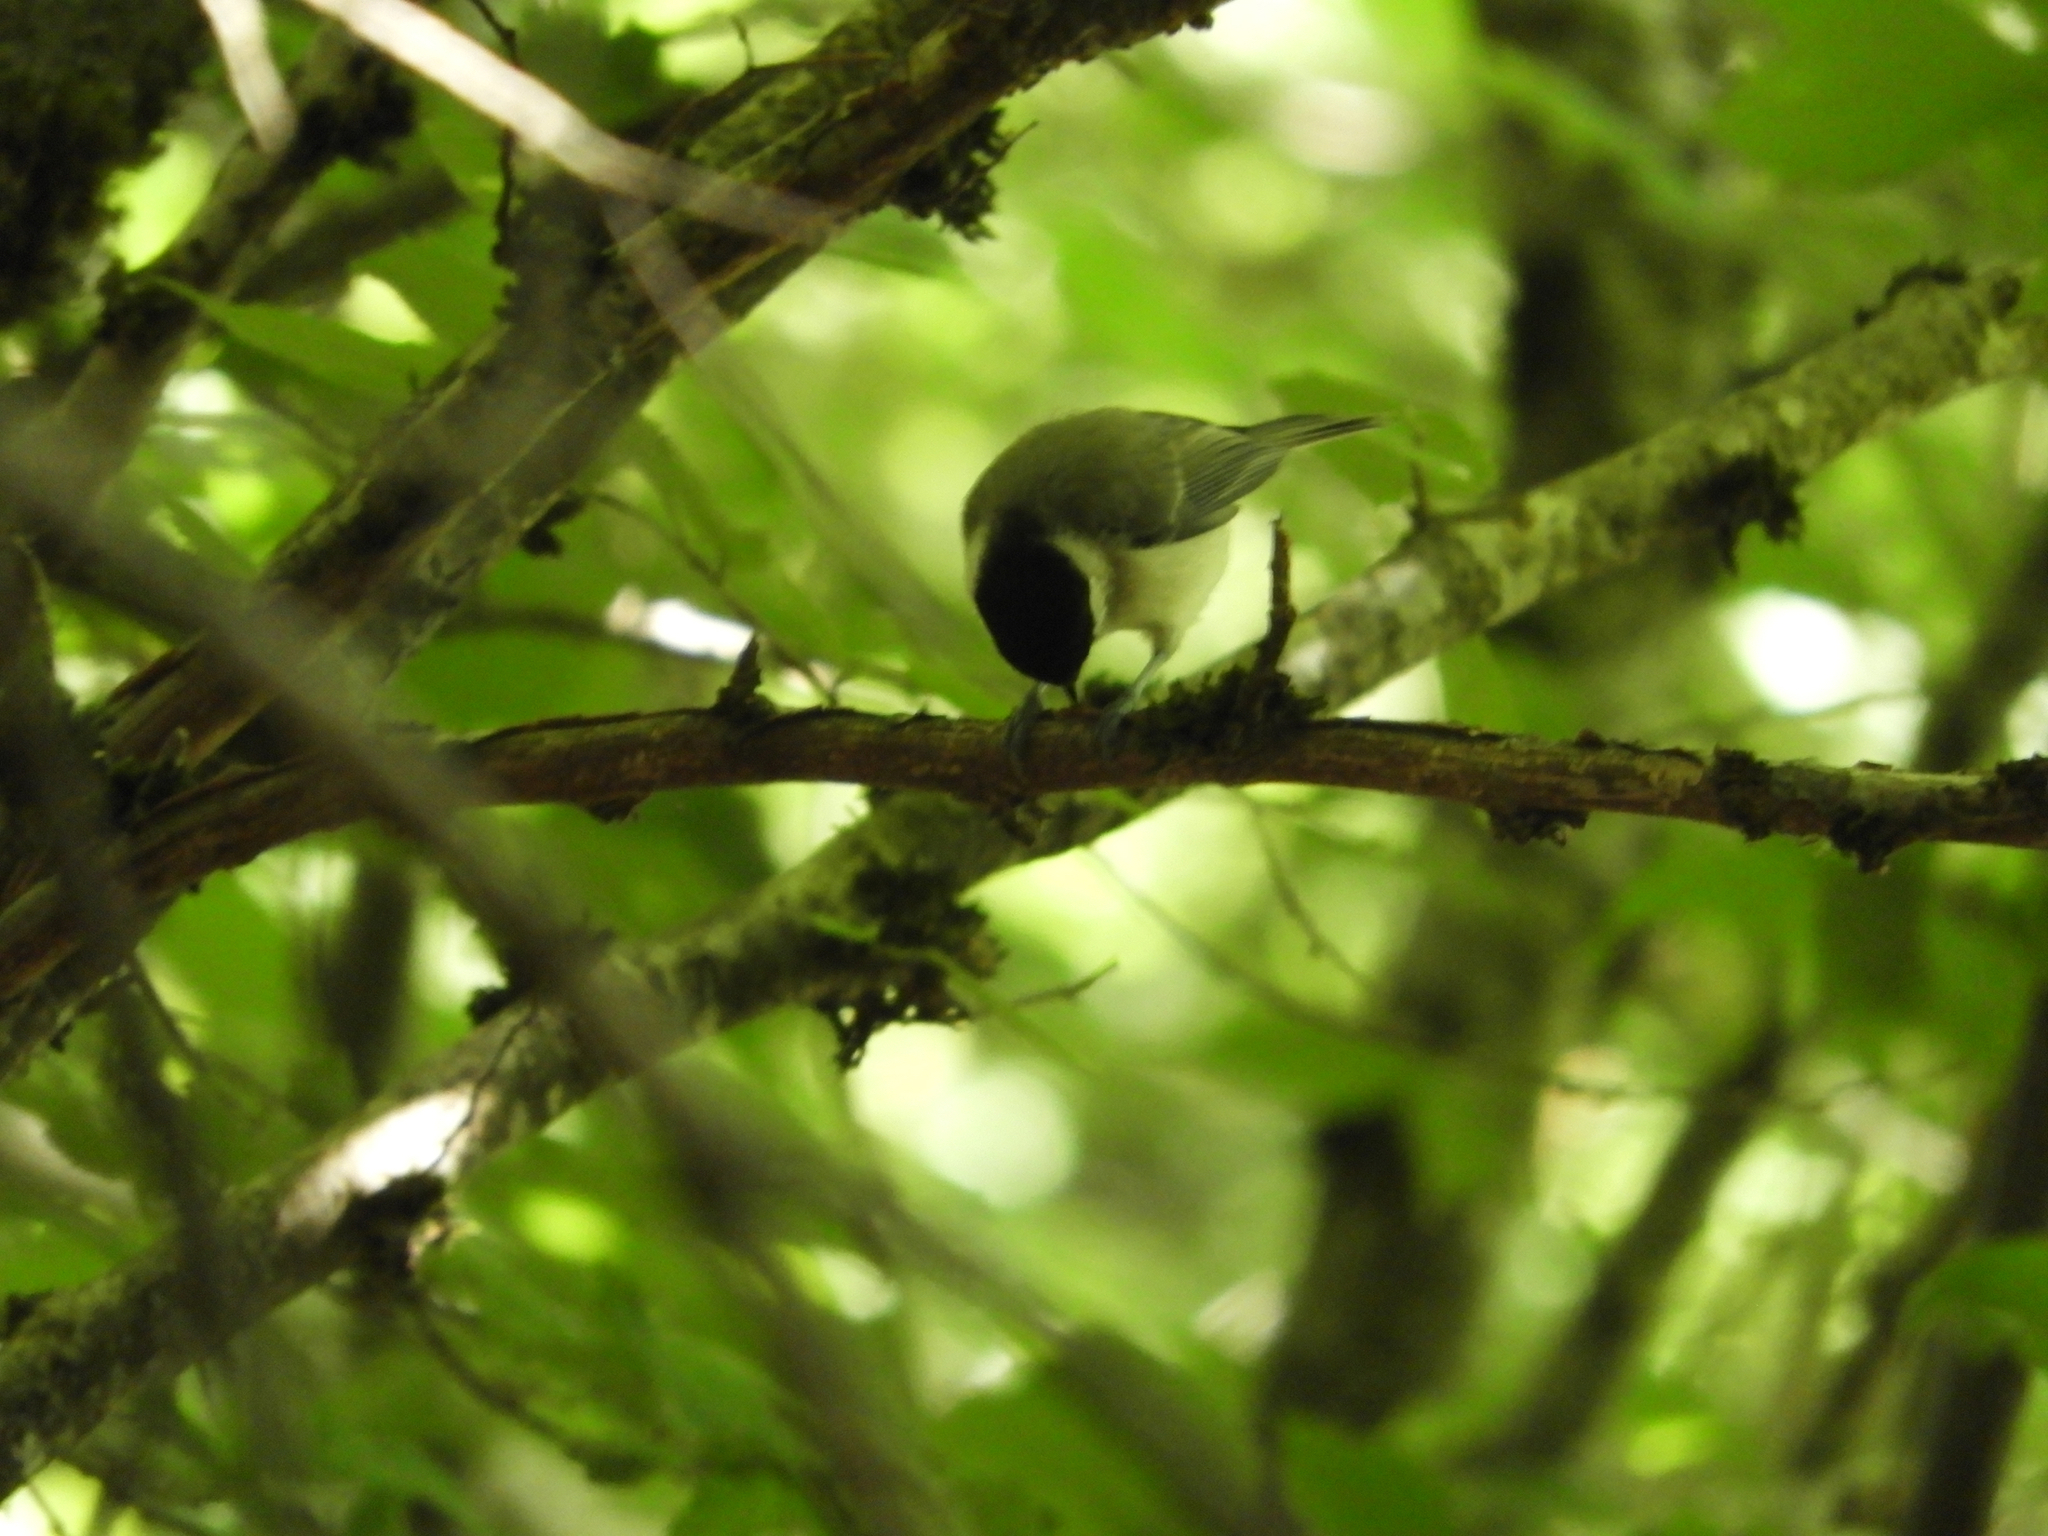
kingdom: Animalia
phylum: Chordata
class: Aves
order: Passeriformes
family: Paridae
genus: Poecile
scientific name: Poecile palustris
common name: Marsh tit
